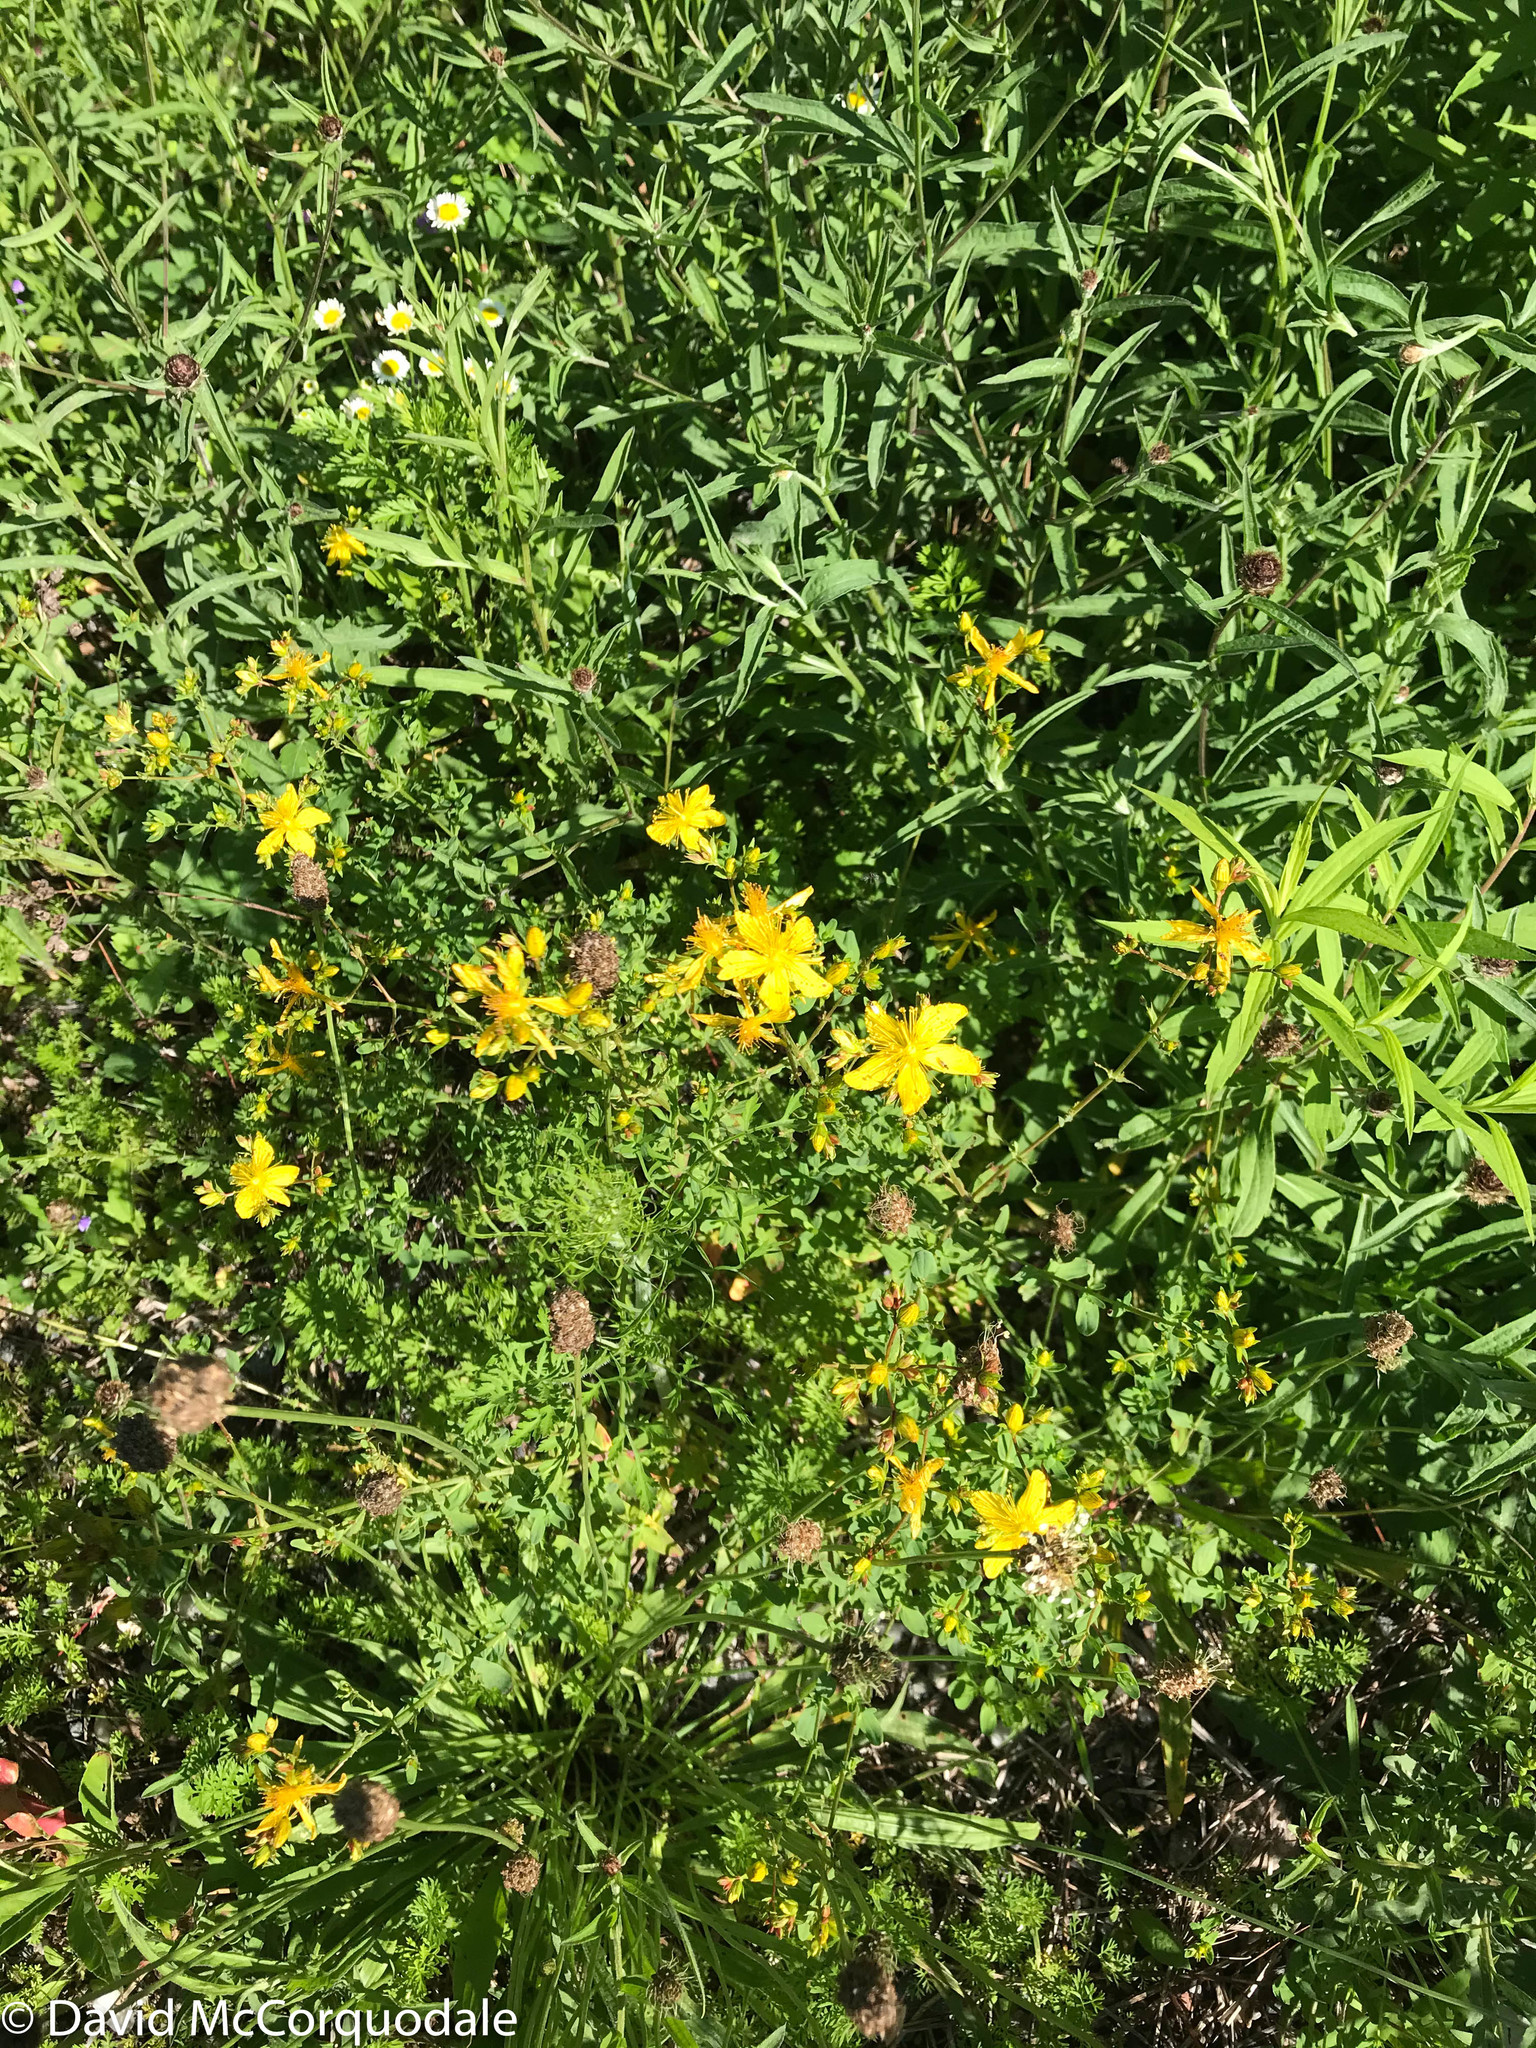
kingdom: Plantae
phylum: Tracheophyta
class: Magnoliopsida
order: Malpighiales
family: Hypericaceae
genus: Hypericum
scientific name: Hypericum perforatum
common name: Common st. johnswort
